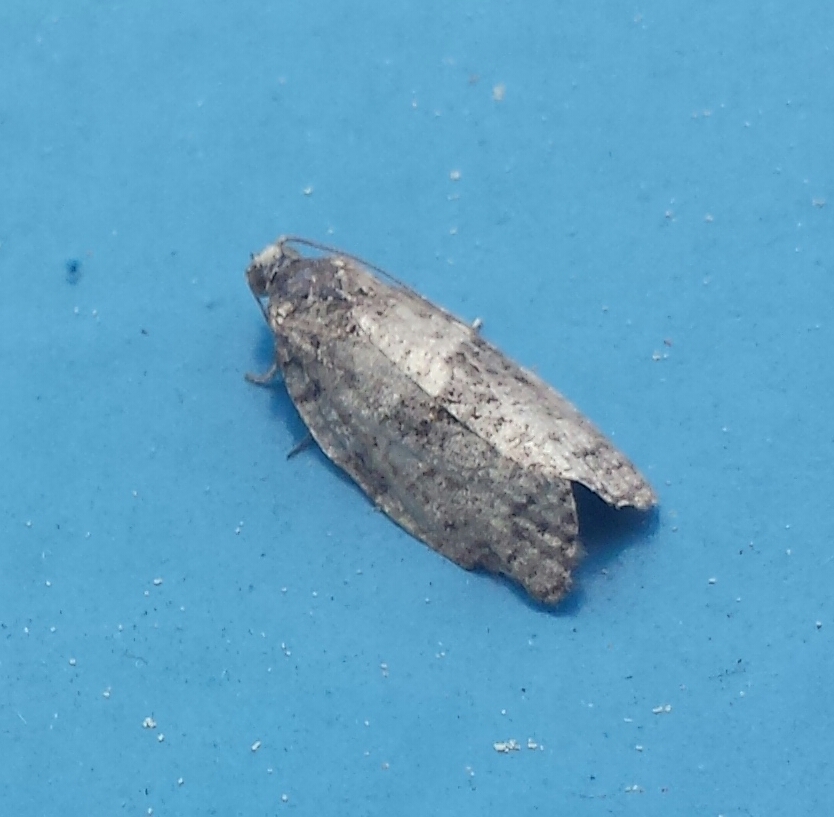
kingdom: Animalia
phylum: Arthropoda
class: Insecta
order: Lepidoptera
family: Tortricidae
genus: Choristoneura
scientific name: Choristoneura conflictana
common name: Large aspen tortrix
